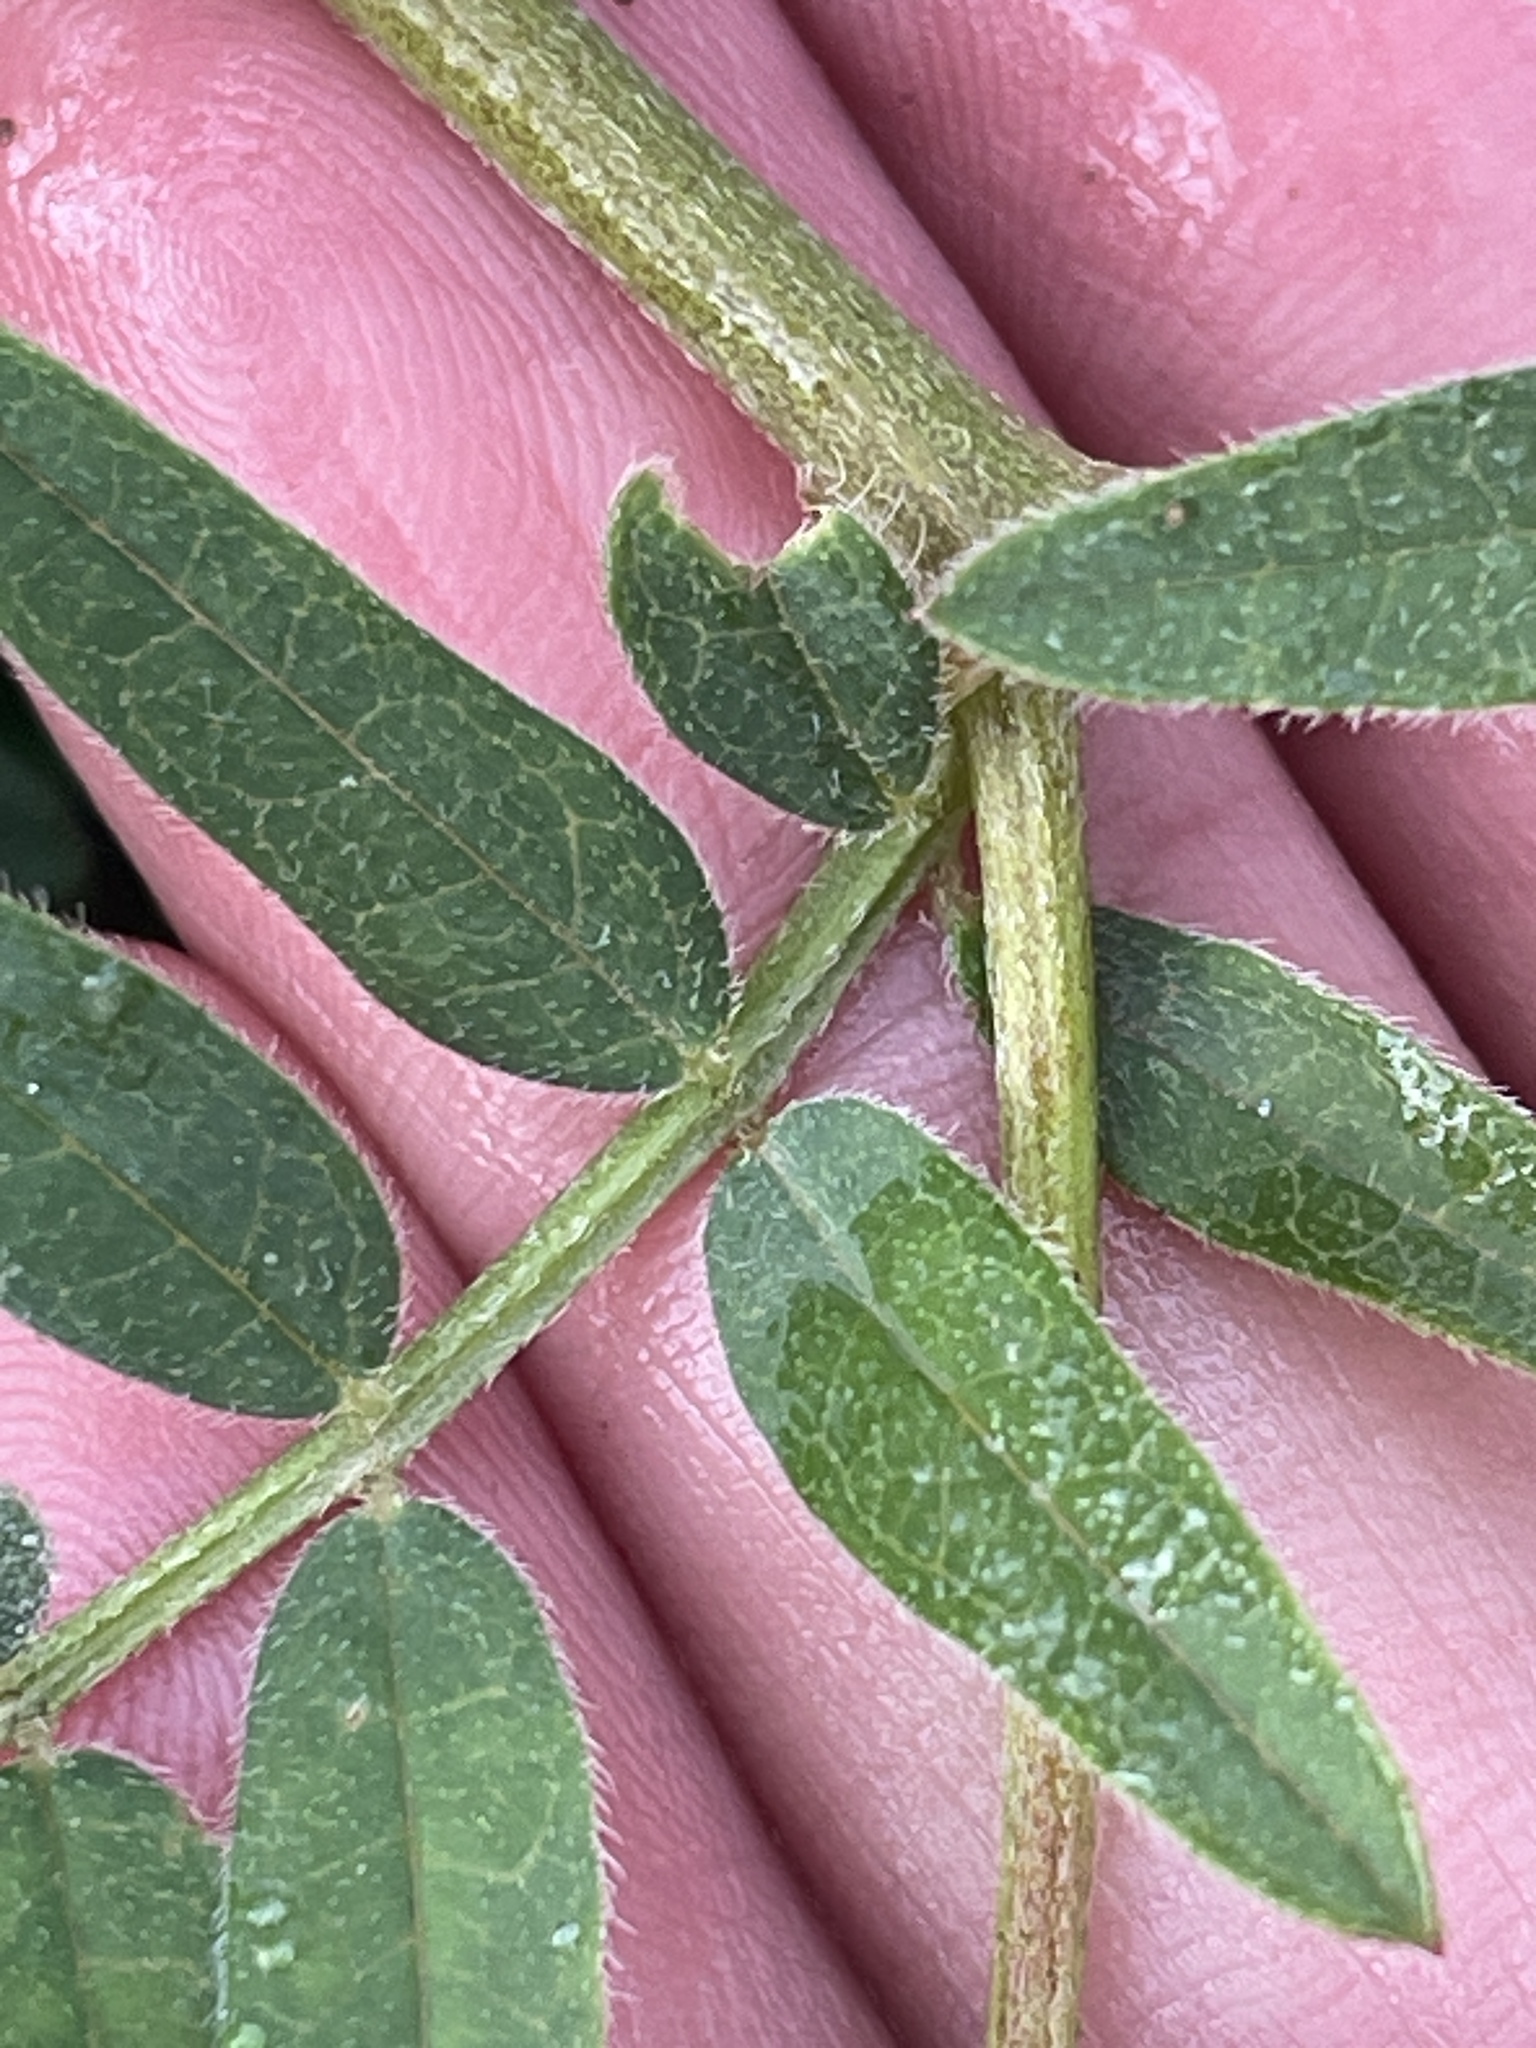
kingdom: Plantae
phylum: Tracheophyta
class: Magnoliopsida
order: Fabales
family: Fabaceae
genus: Astragalus
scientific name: Astragalus cicer
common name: Chick-pea milk-vetch
